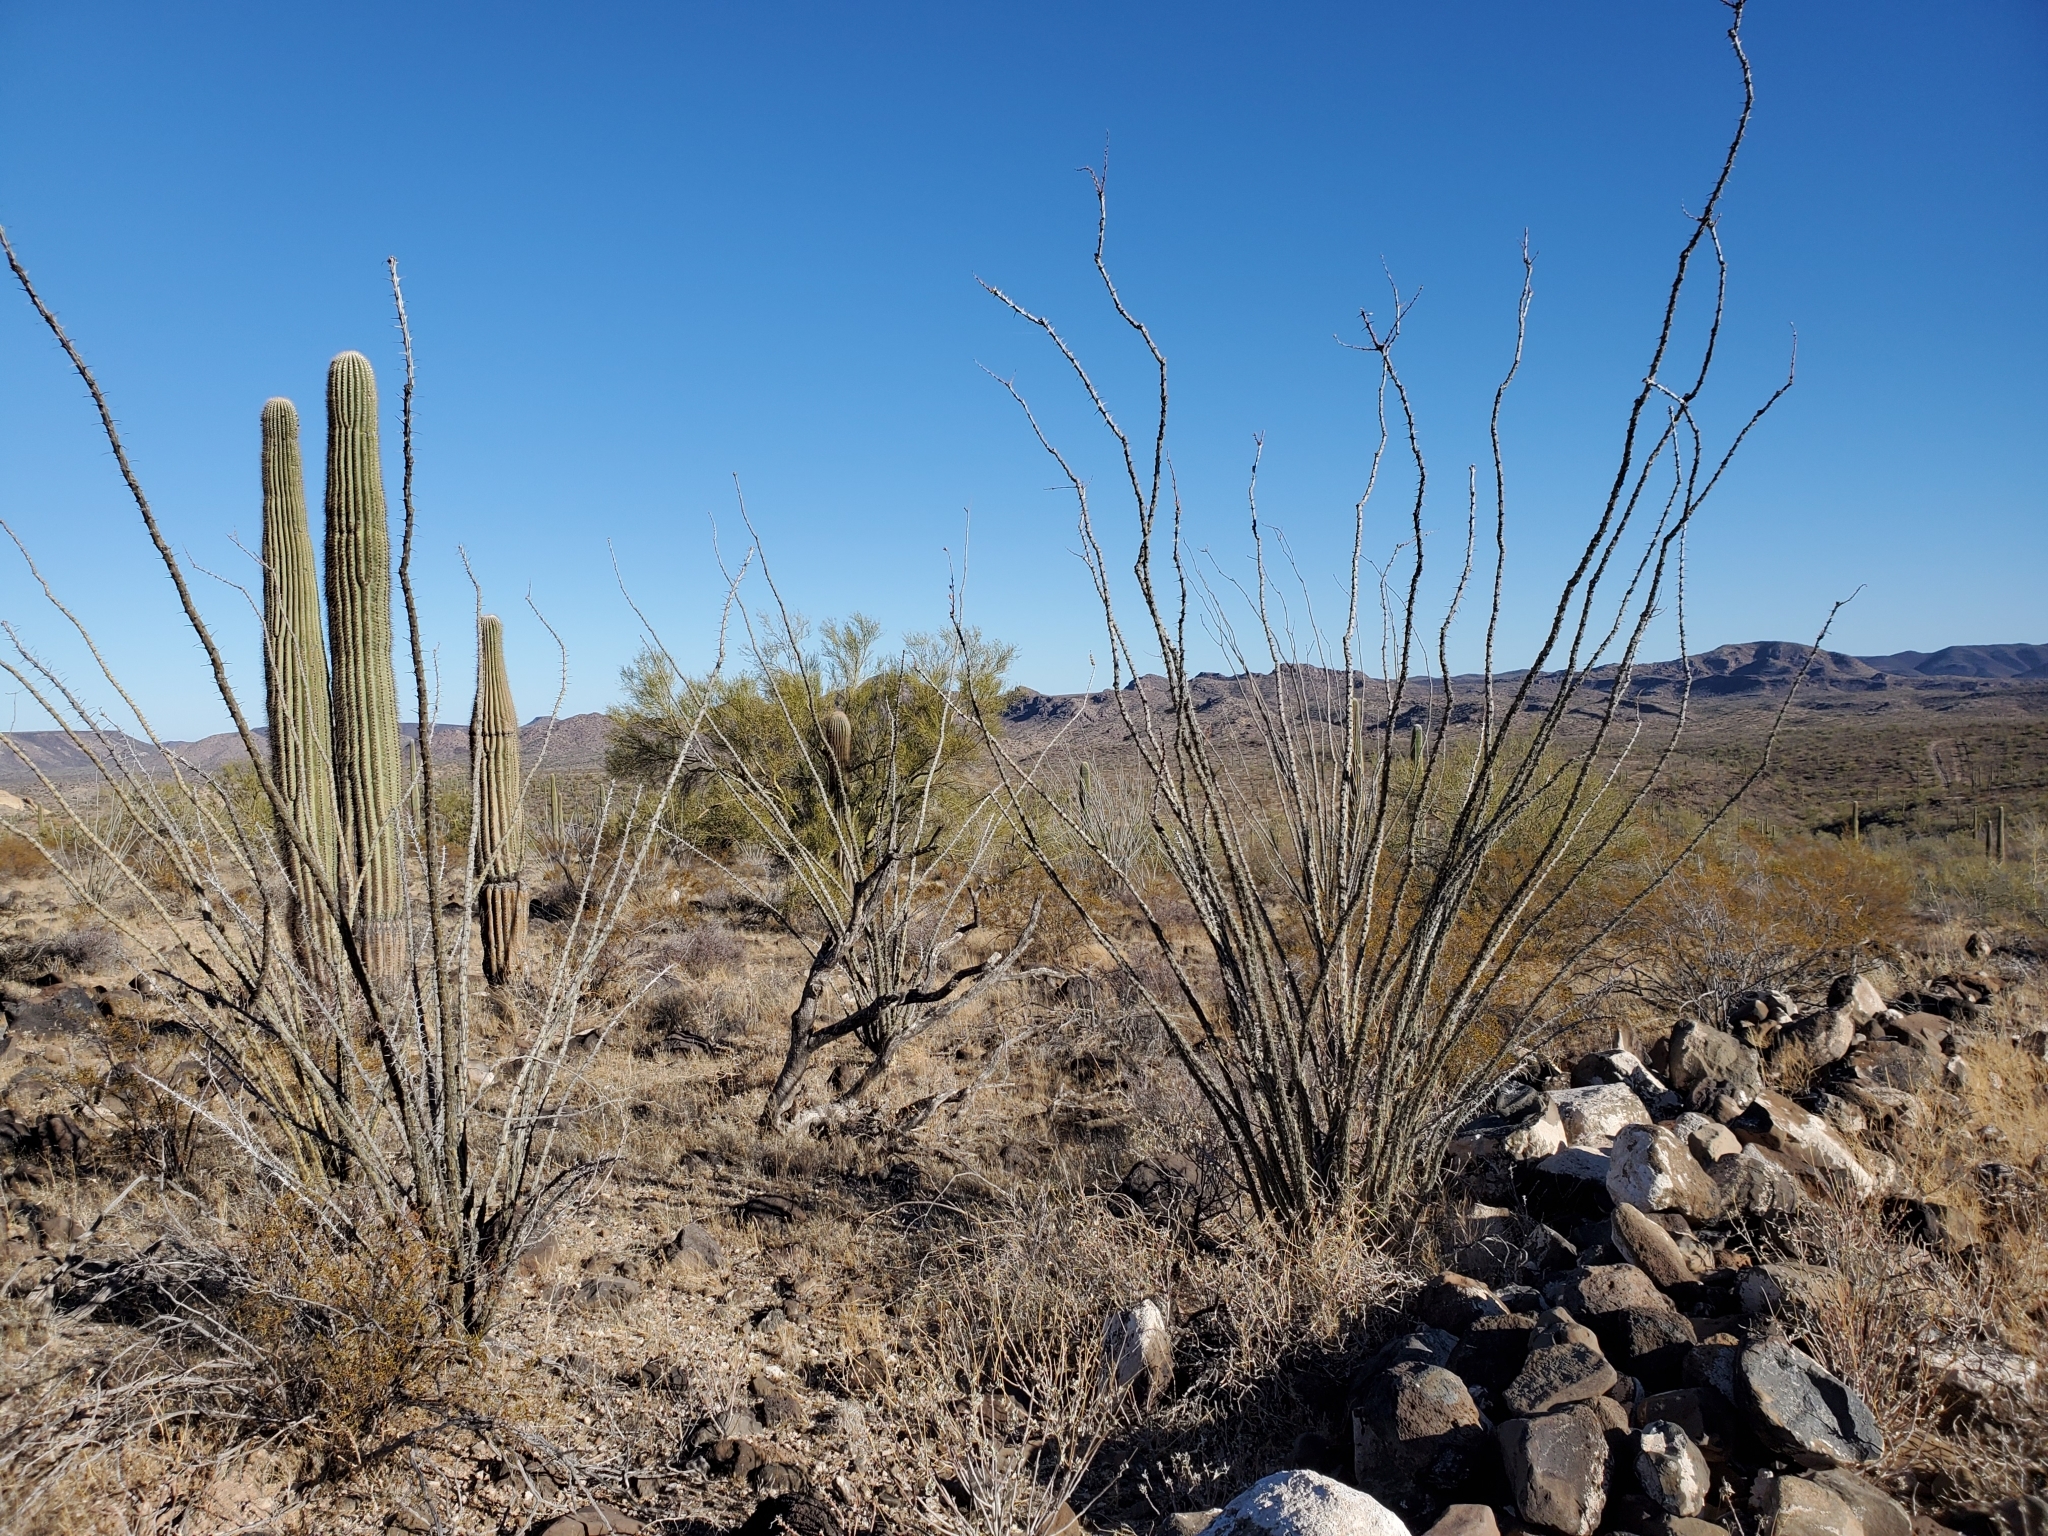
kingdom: Plantae
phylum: Tracheophyta
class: Magnoliopsida
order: Ericales
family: Fouquieriaceae
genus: Fouquieria
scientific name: Fouquieria splendens
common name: Vine-cactus
